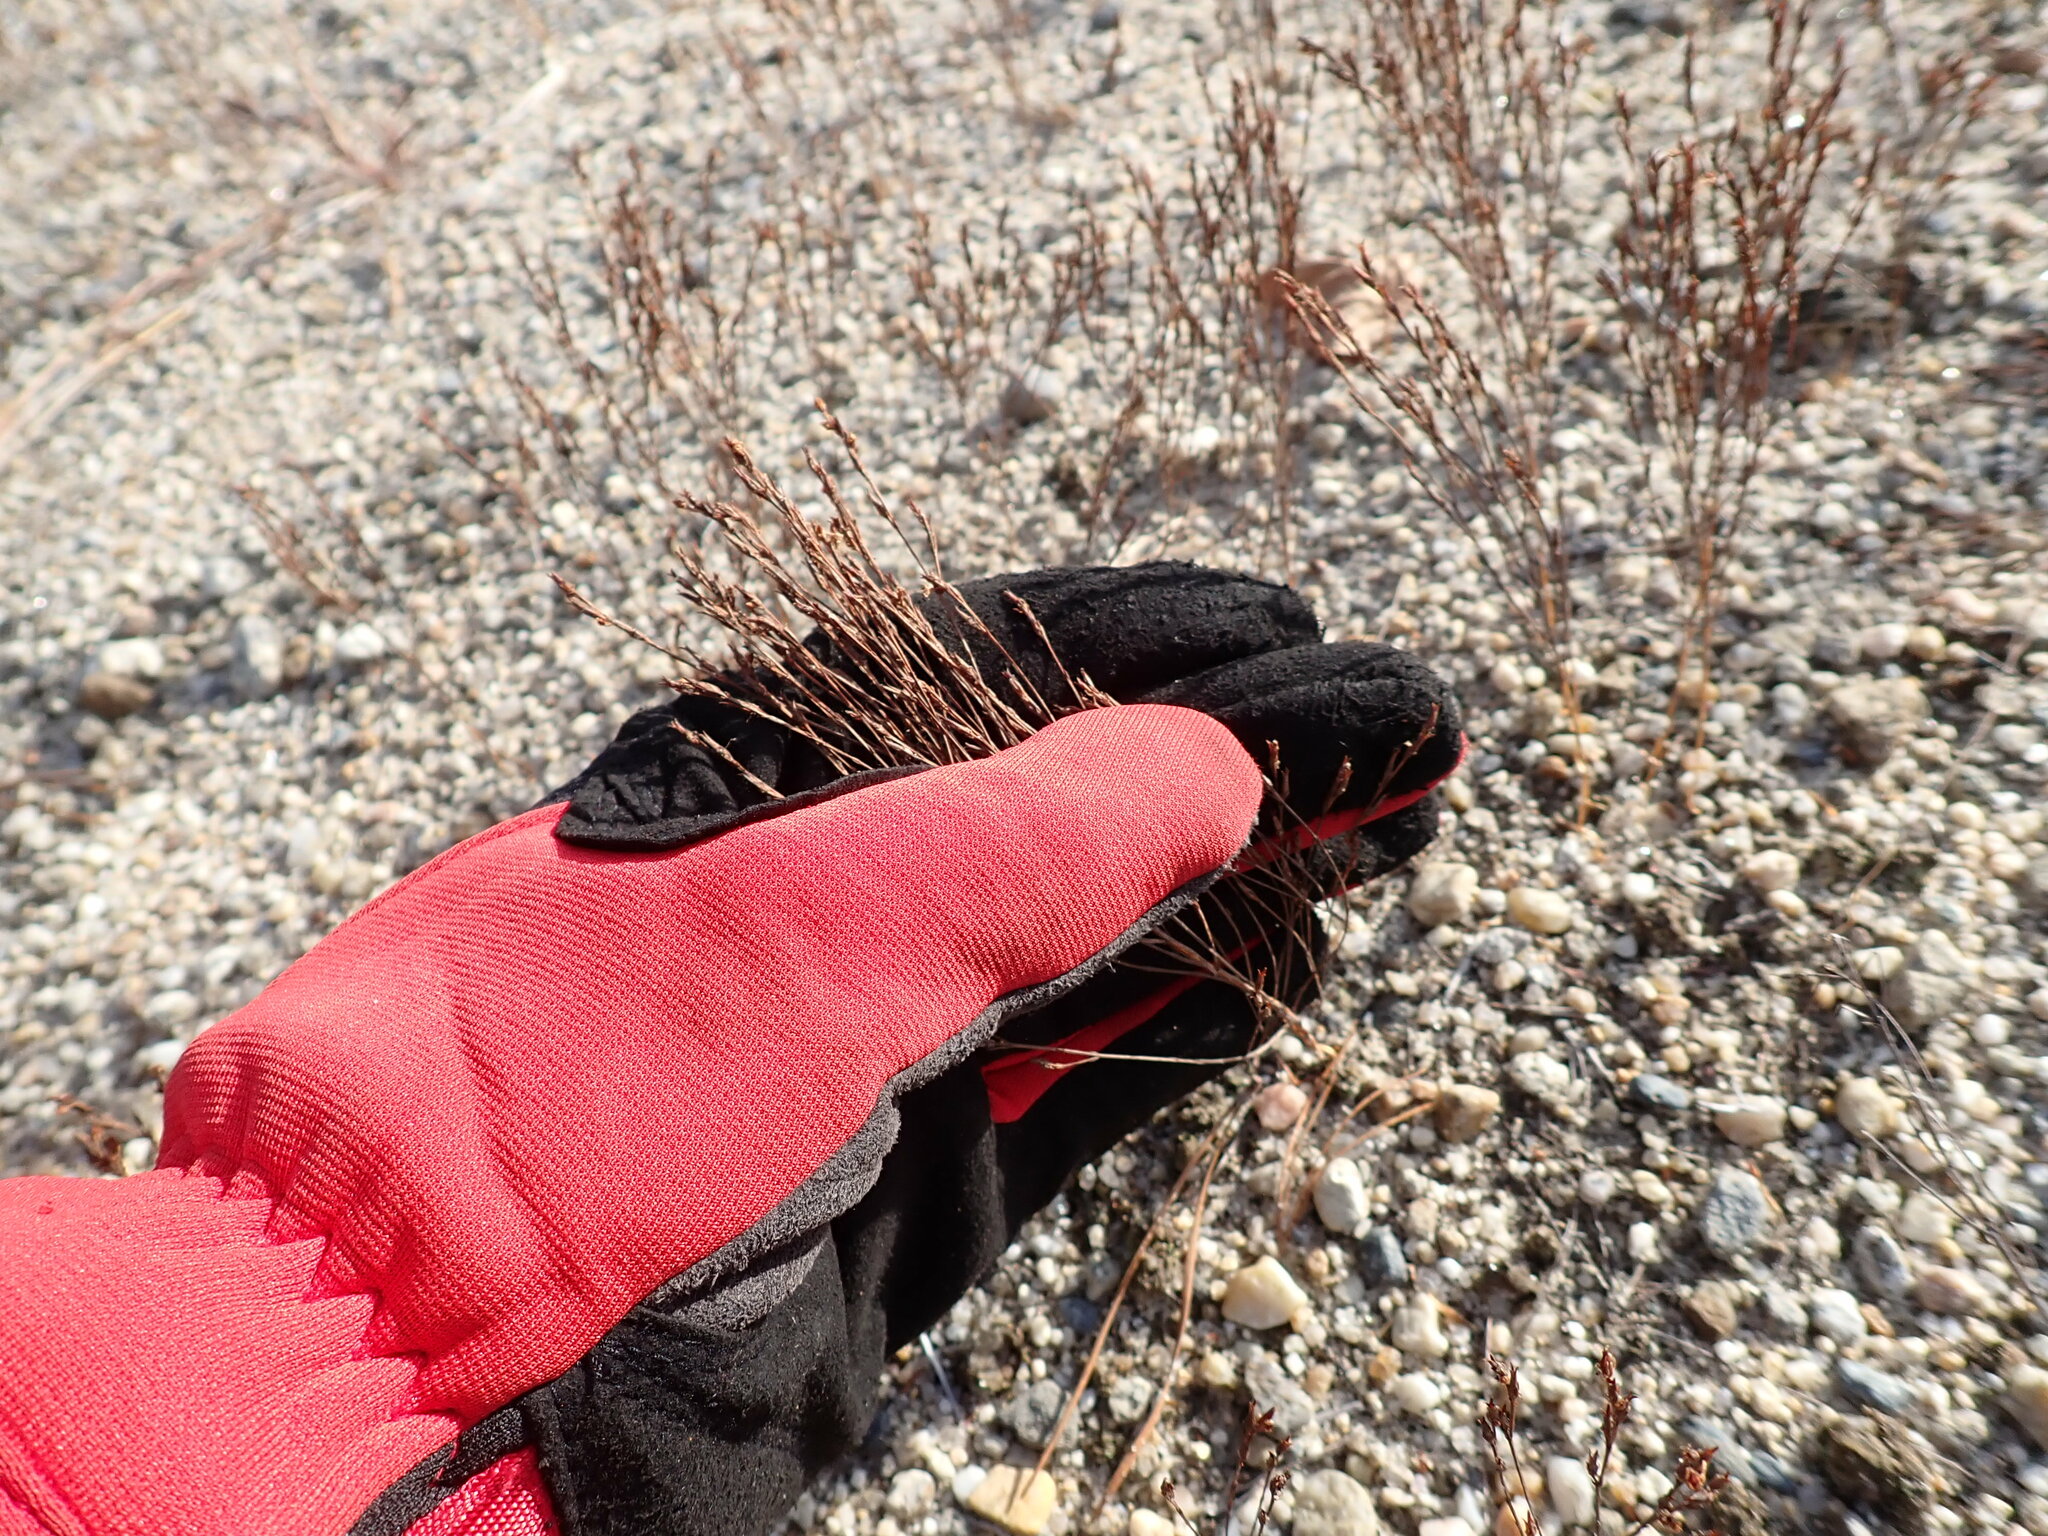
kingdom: Plantae
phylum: Tracheophyta
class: Magnoliopsida
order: Malpighiales
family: Hypericaceae
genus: Hypericum
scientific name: Hypericum gentianoides
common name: Gentian-leaved st. john's-wort
